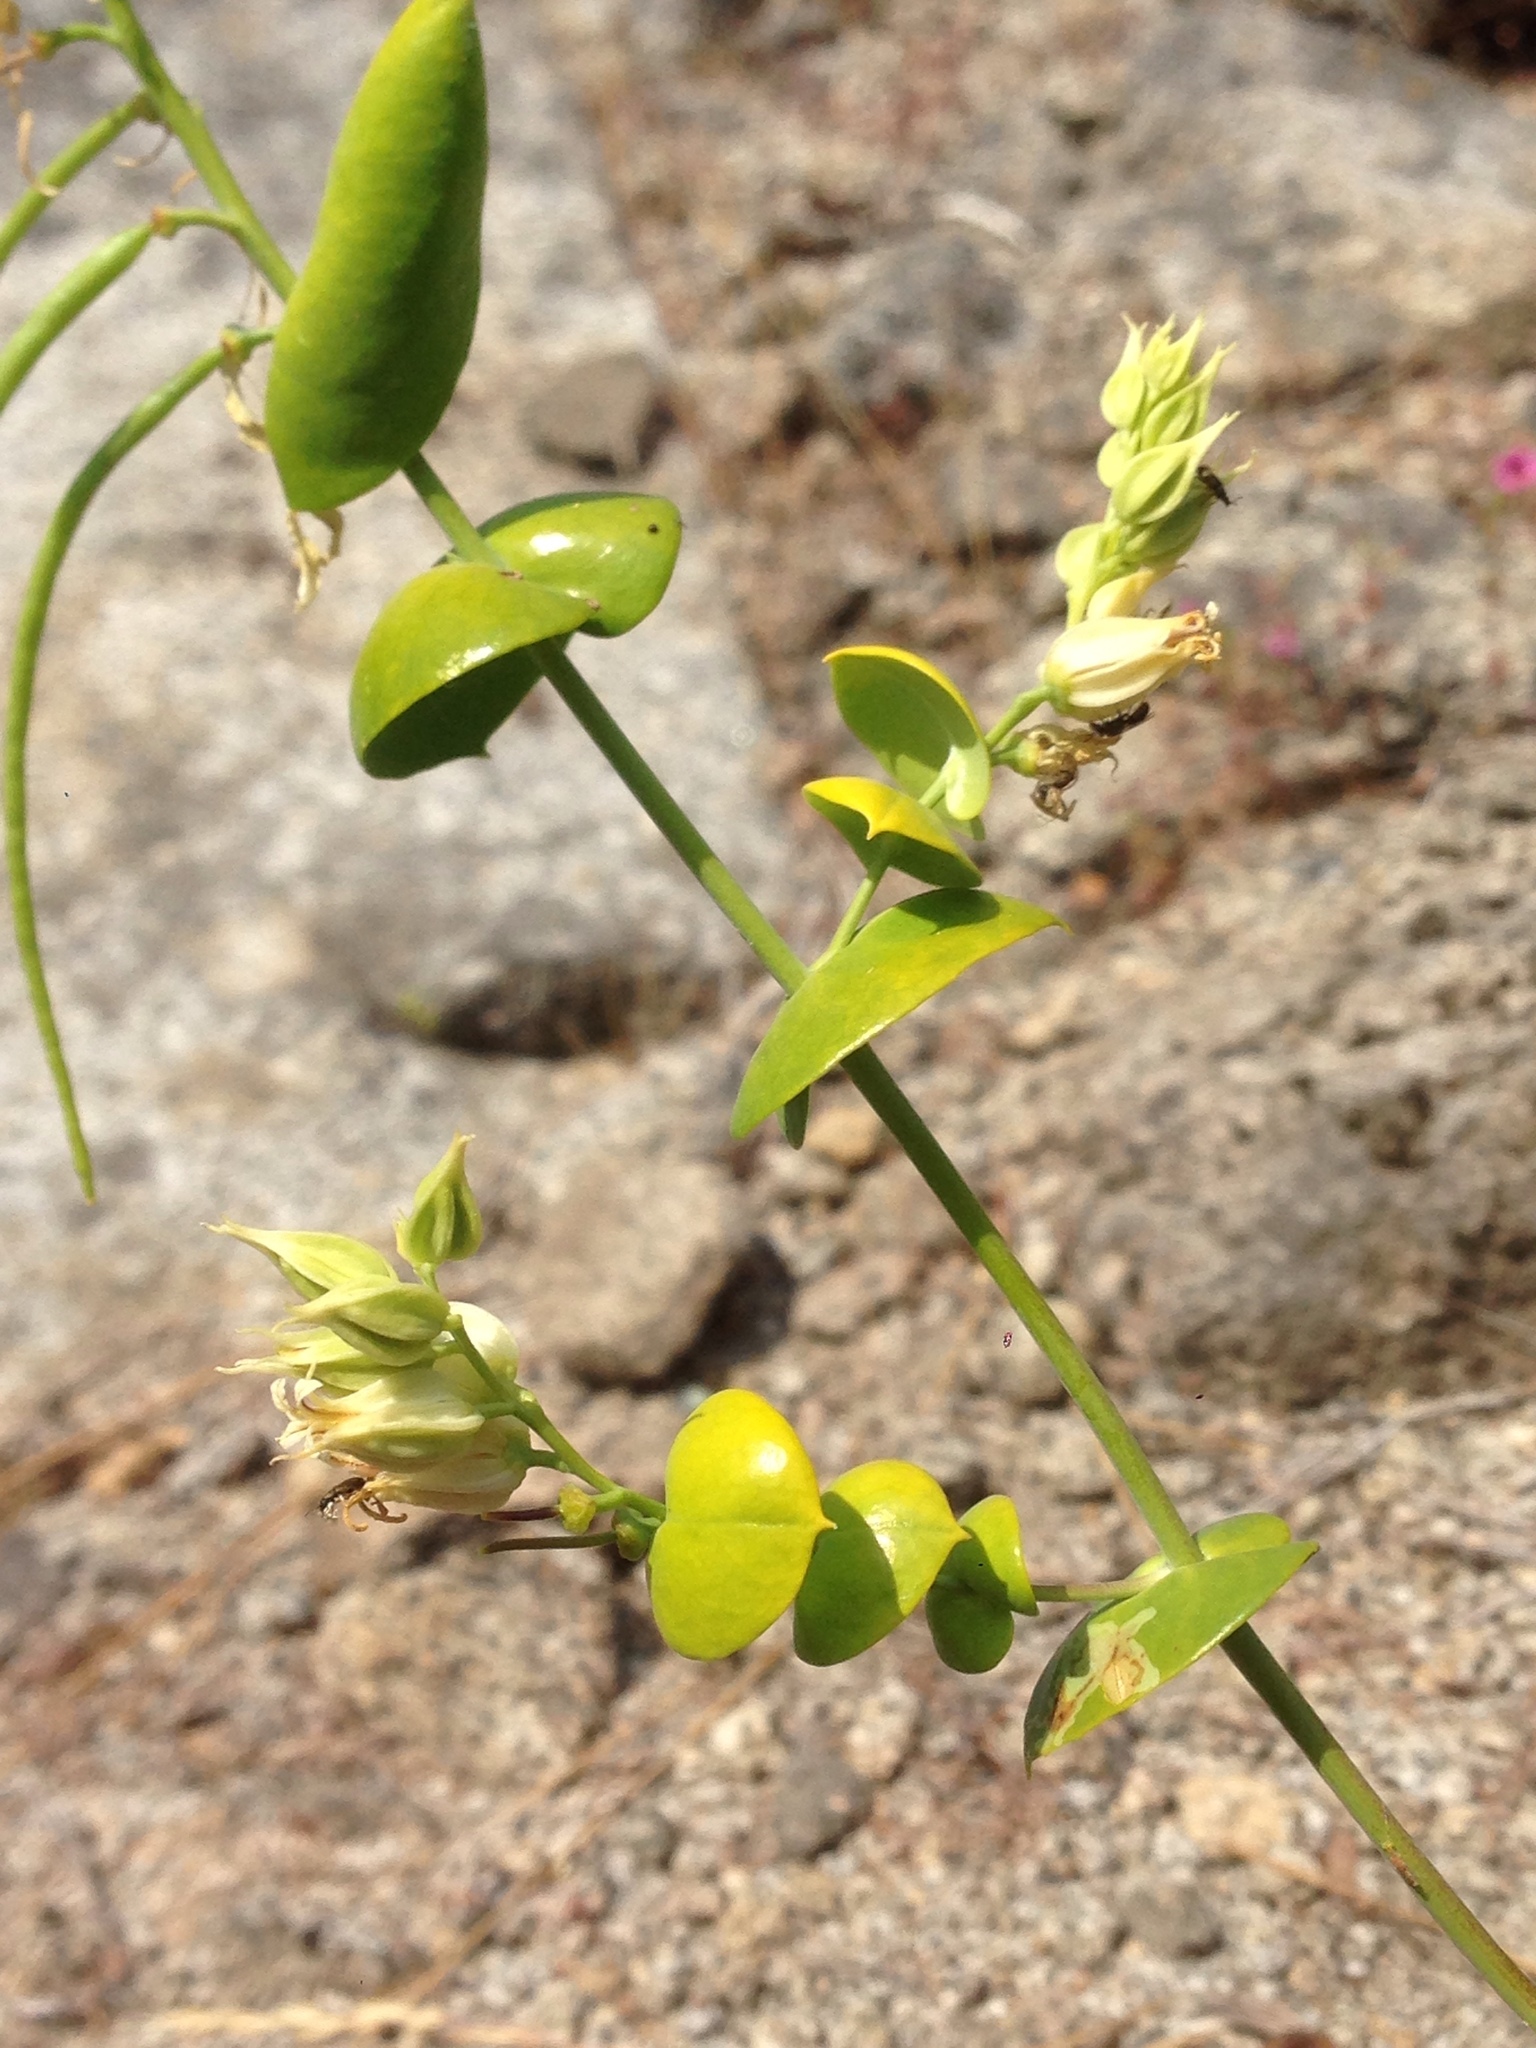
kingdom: Plantae
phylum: Tracheophyta
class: Magnoliopsida
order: Brassicales
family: Brassicaceae
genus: Streptanthus
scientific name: Streptanthus tortuosus
